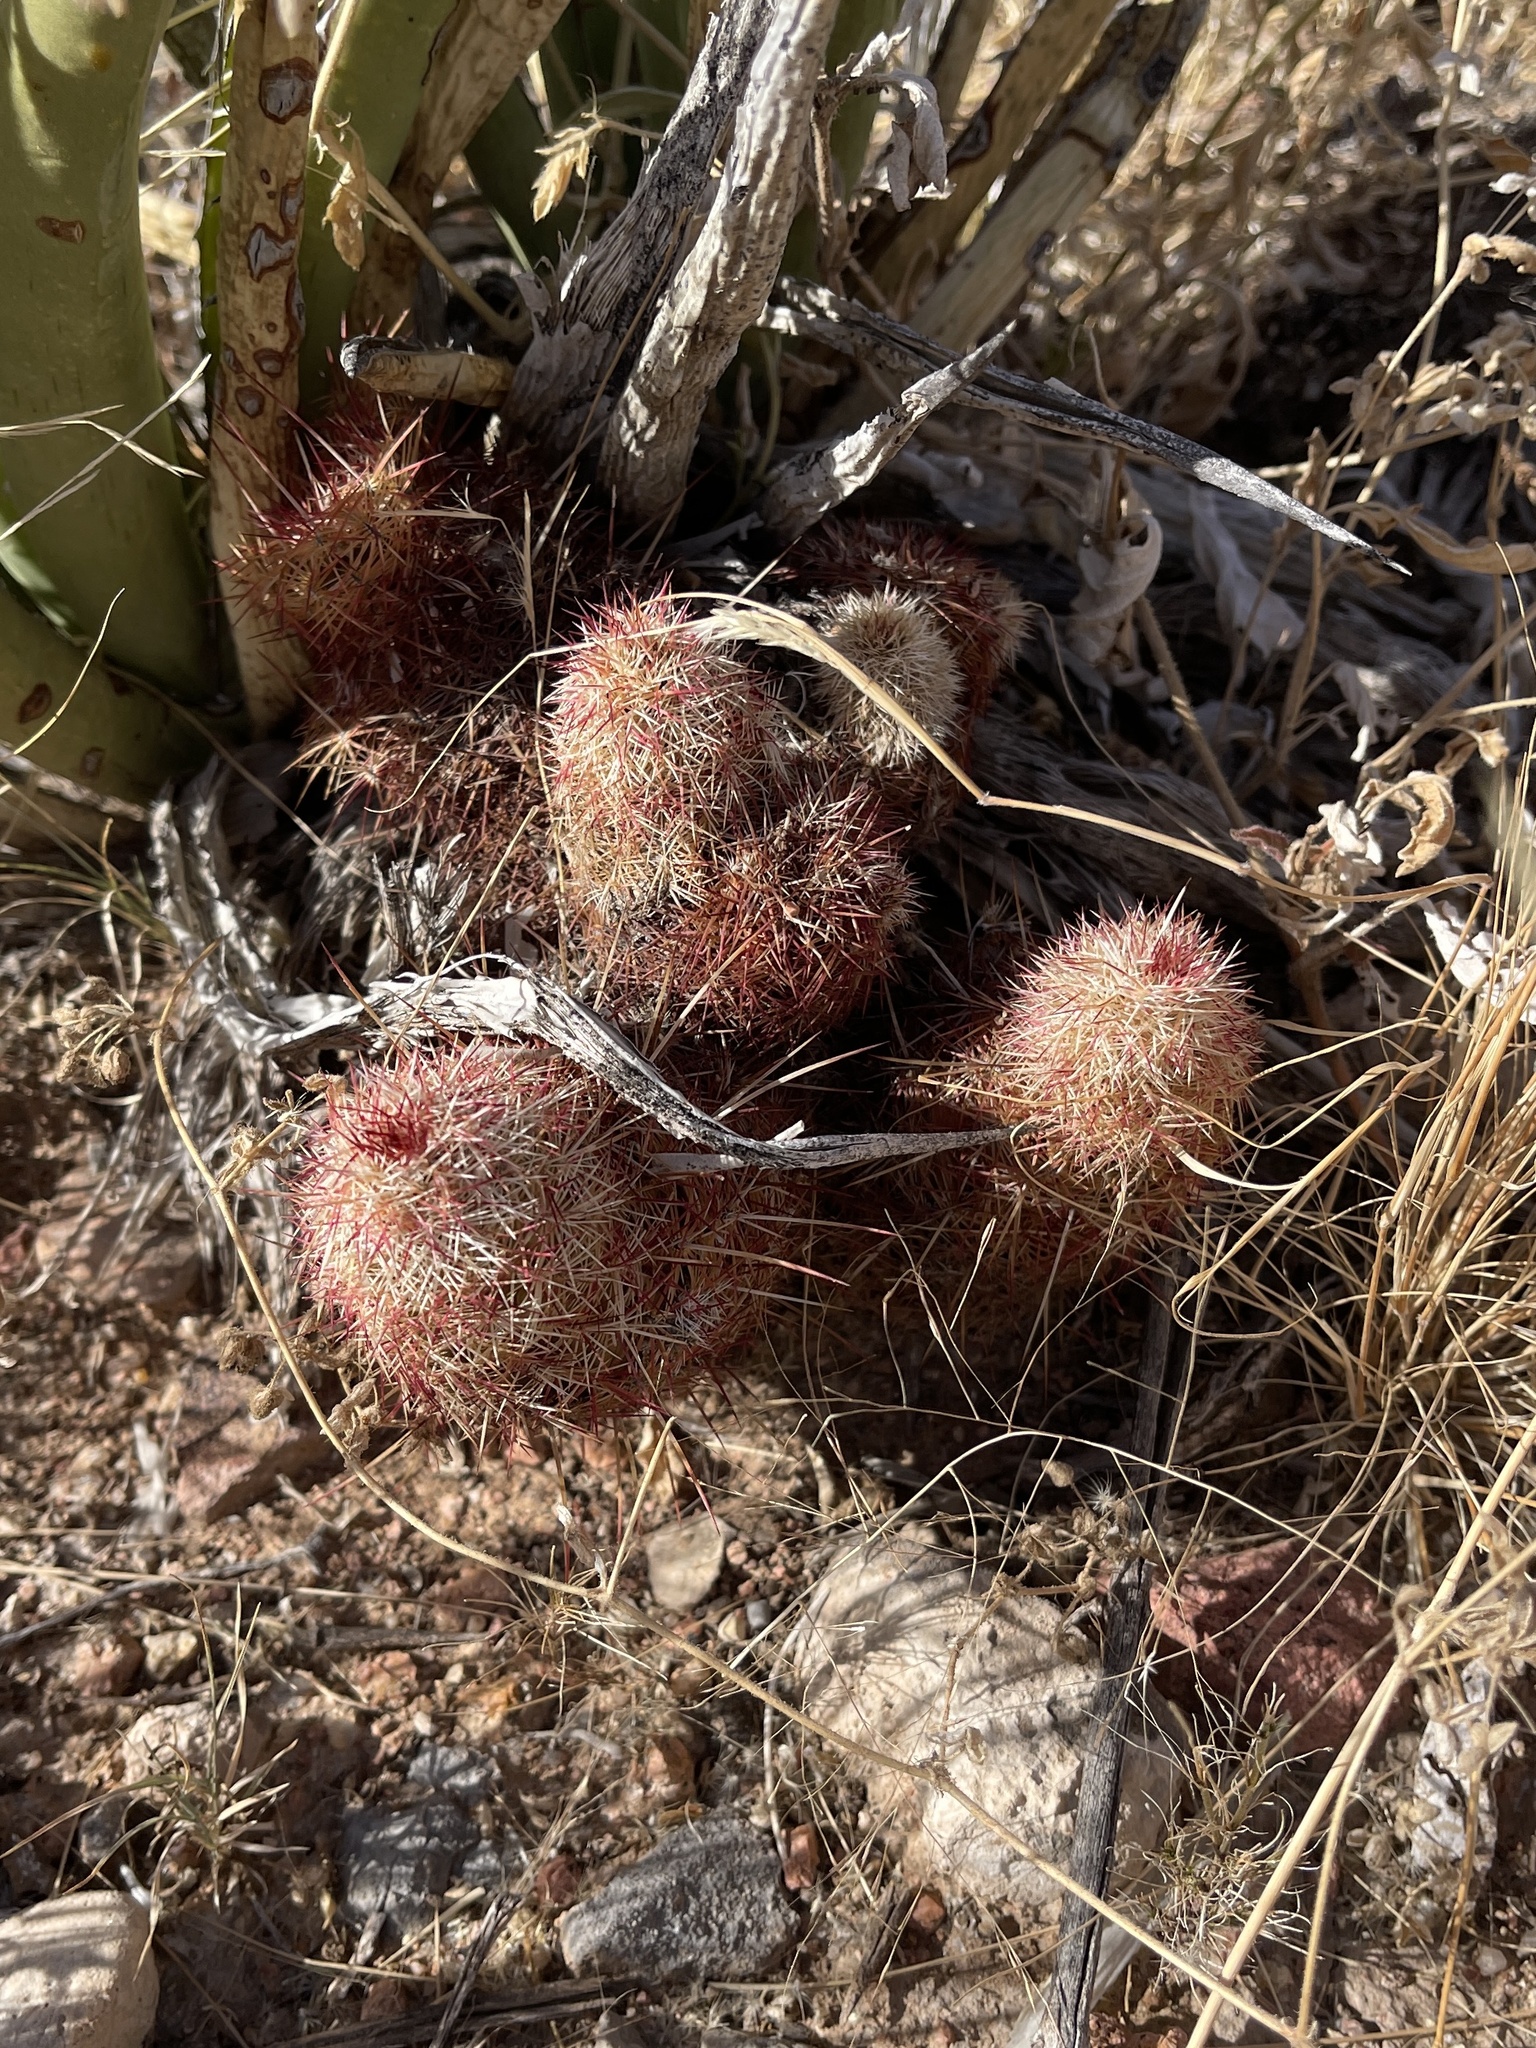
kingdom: Plantae
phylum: Tracheophyta
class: Magnoliopsida
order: Caryophyllales
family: Cactaceae
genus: Echinocereus
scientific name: Echinocereus viridiflorus
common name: Nylon hedgehog cactus
